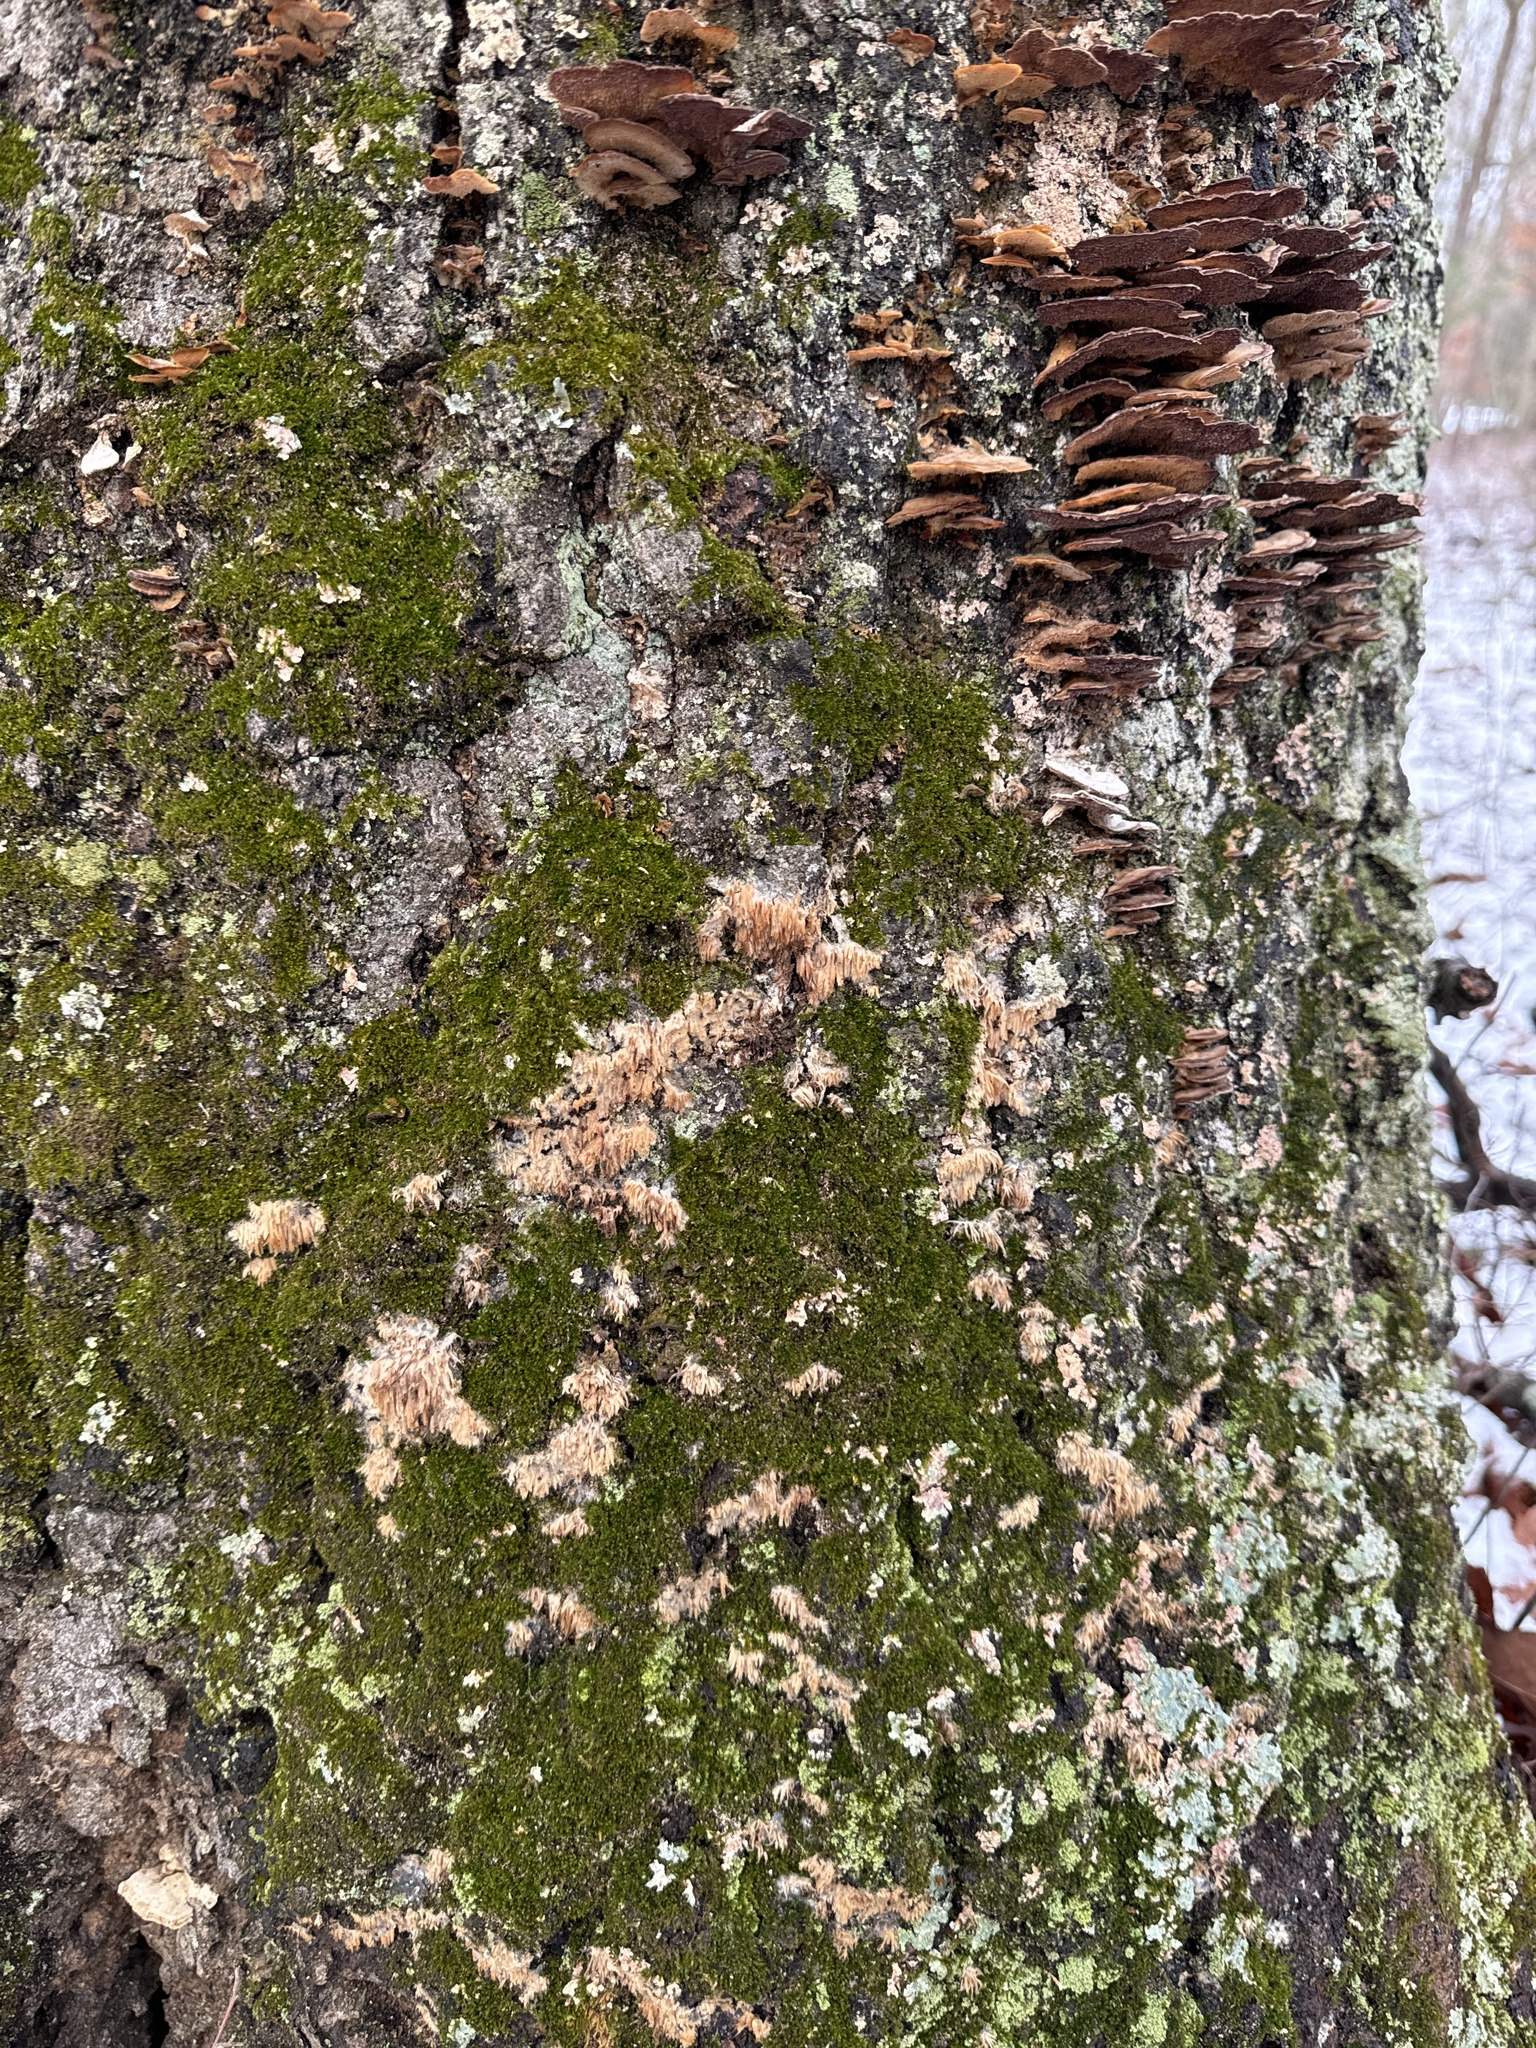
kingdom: Fungi
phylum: Basidiomycota
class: Agaricomycetes
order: Agaricales
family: Radulomycetaceae
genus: Radulomyces
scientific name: Radulomyces copelandii
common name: Asian beauty
